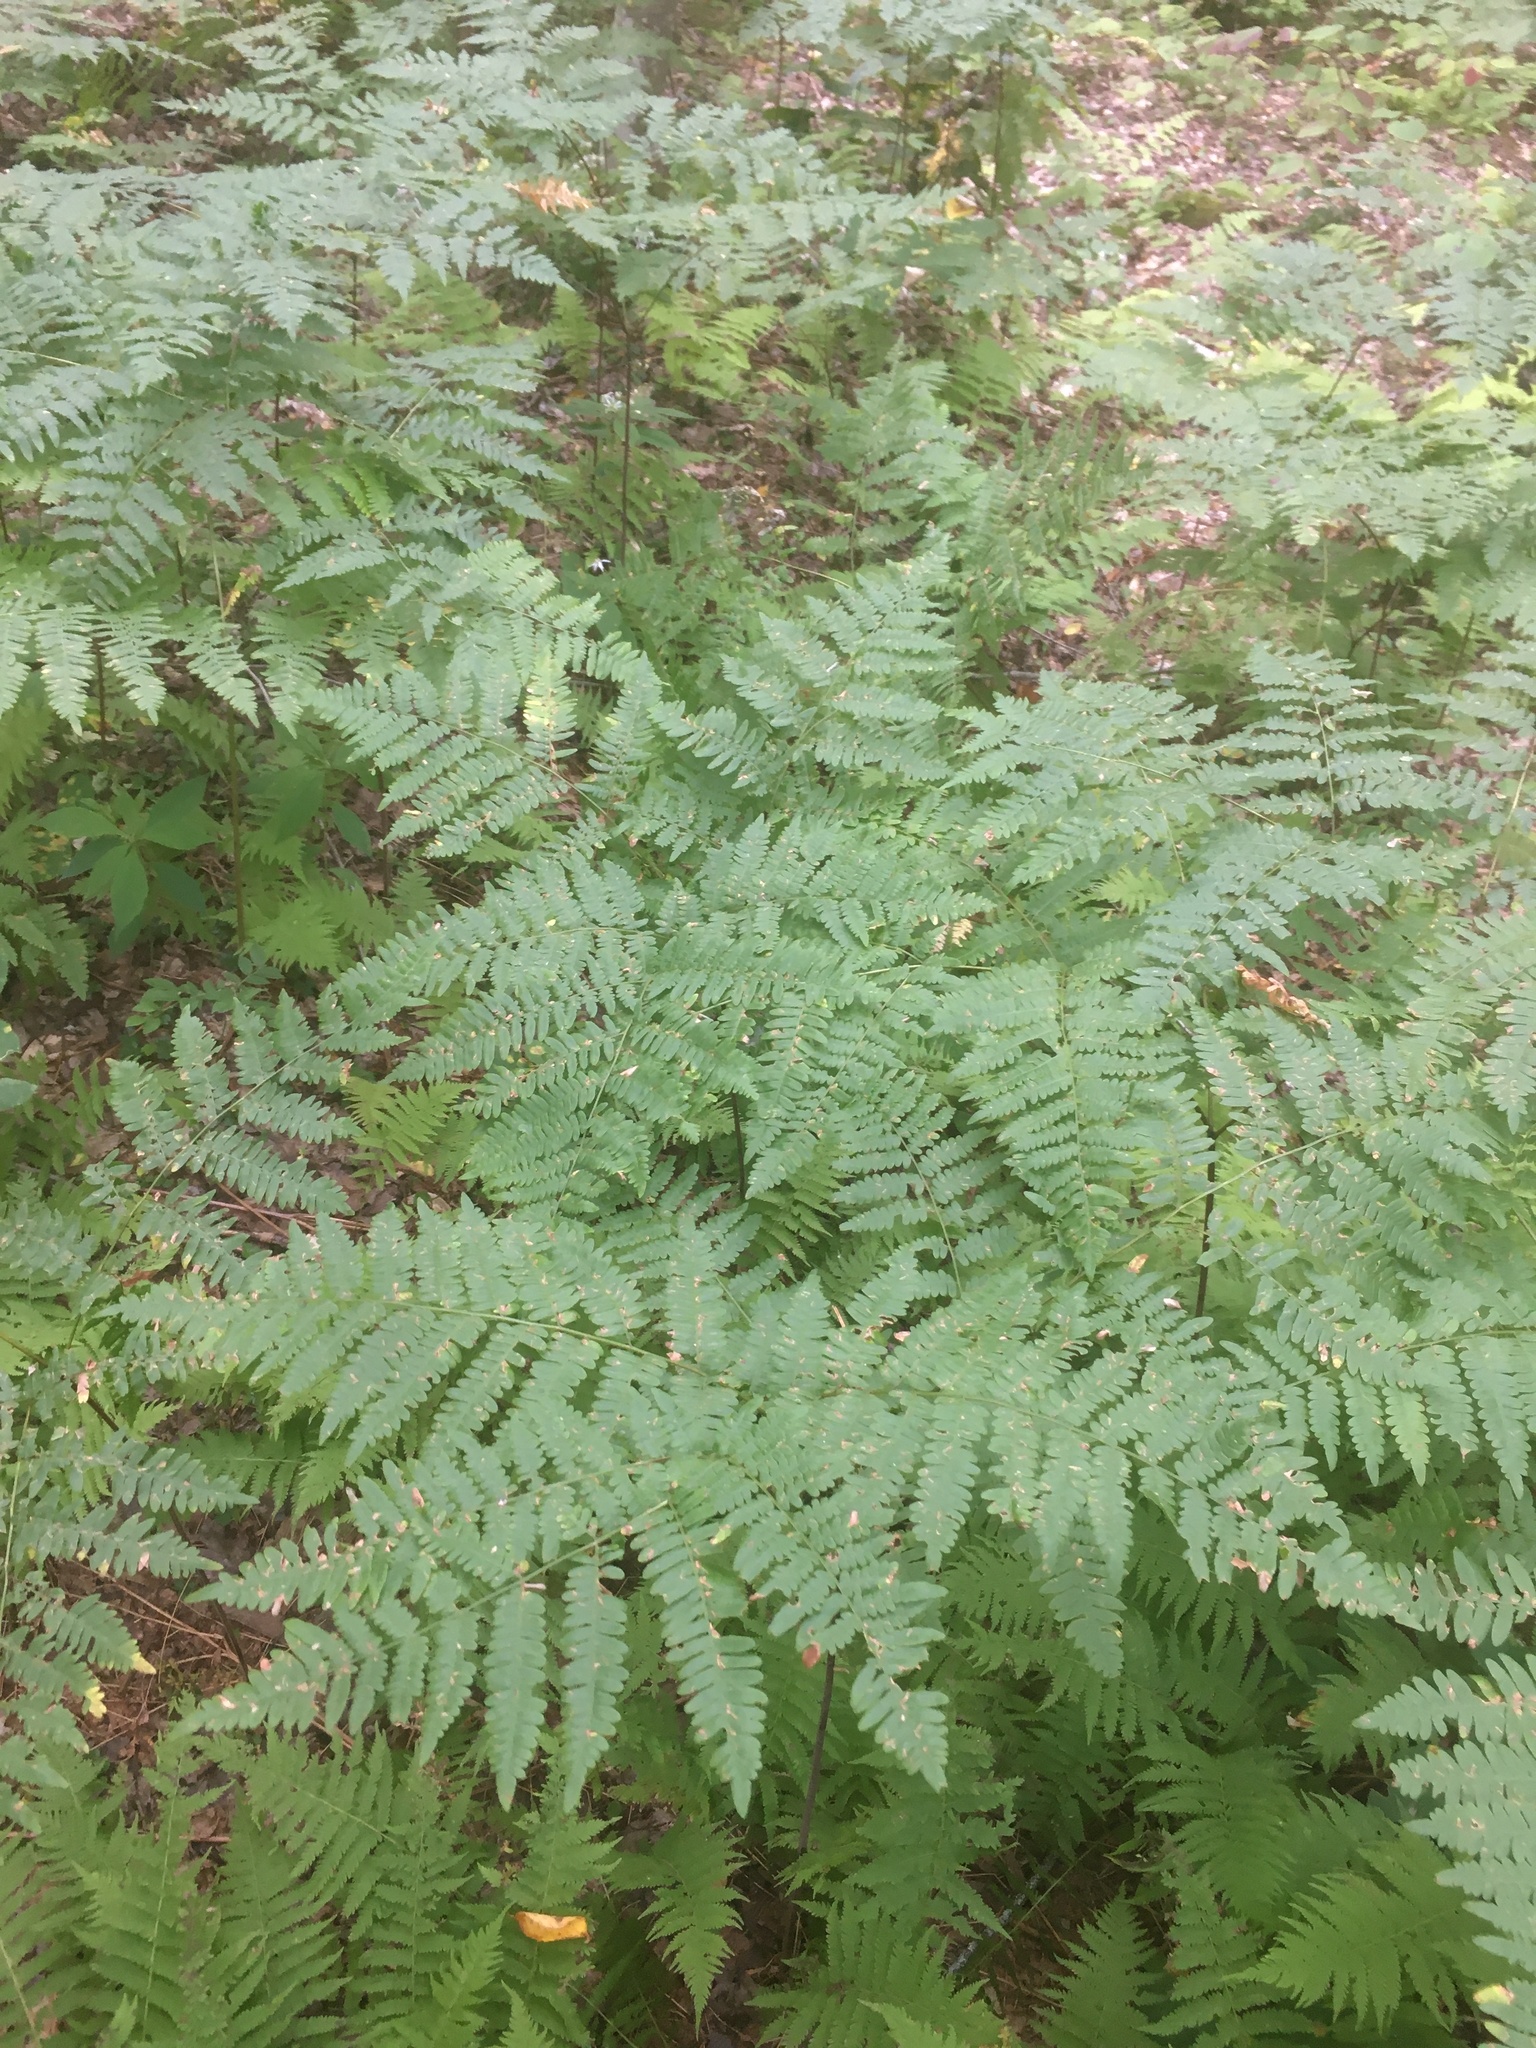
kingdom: Plantae
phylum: Tracheophyta
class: Polypodiopsida
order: Polypodiales
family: Dennstaedtiaceae
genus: Pteridium
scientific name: Pteridium aquilinum
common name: Bracken
